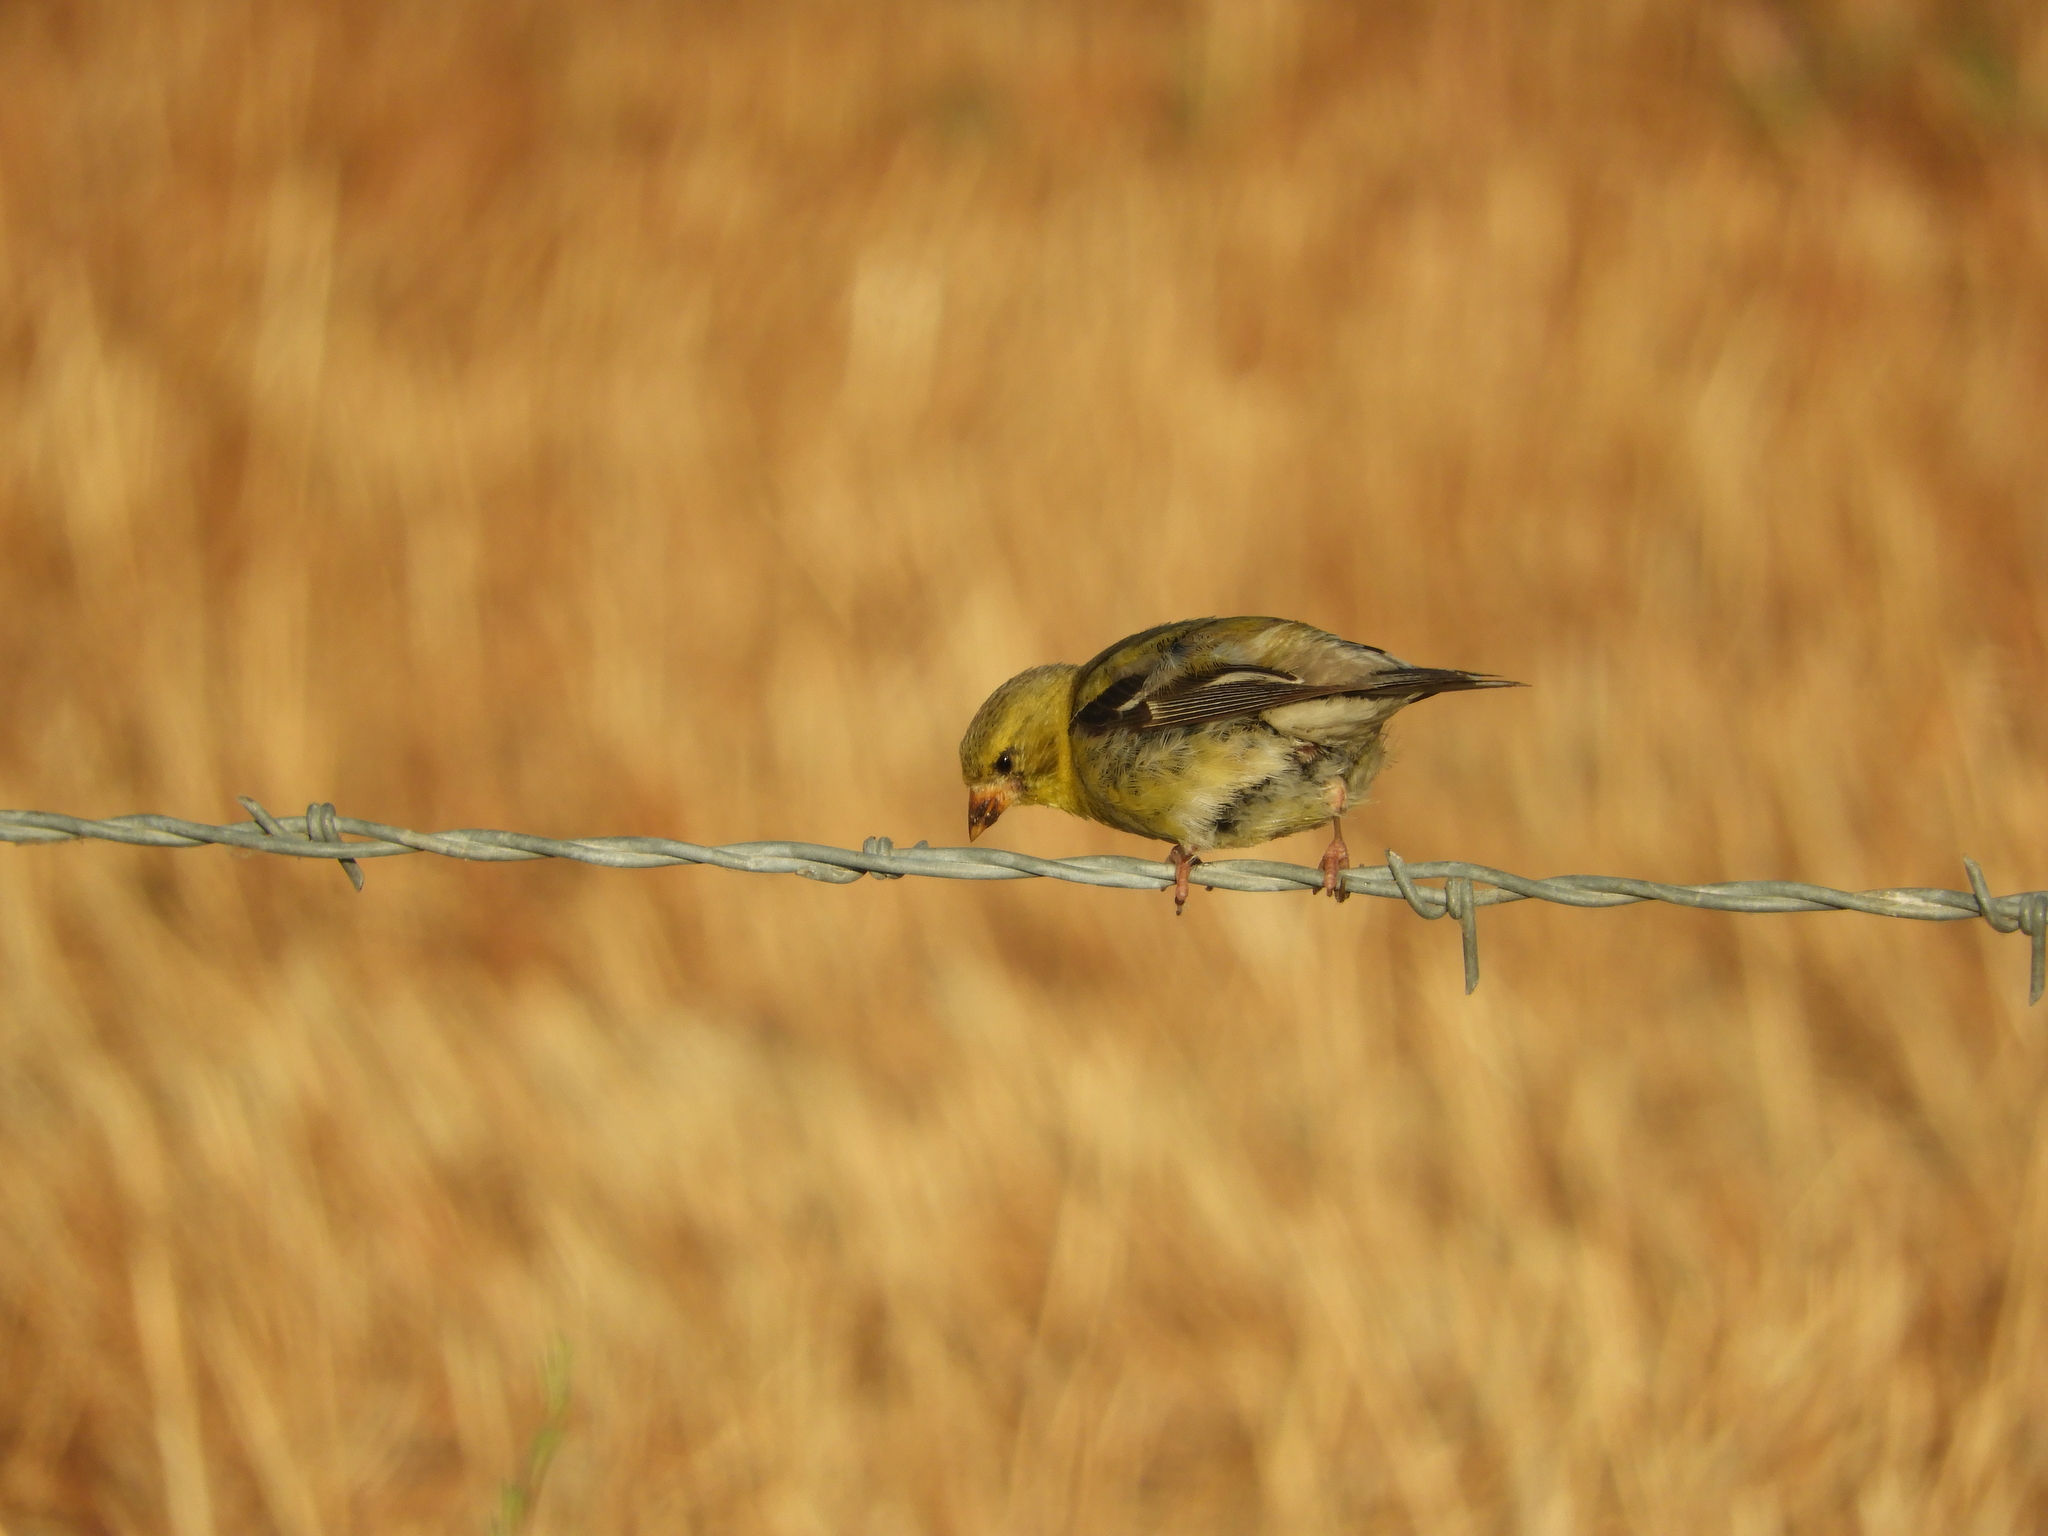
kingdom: Animalia
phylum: Chordata
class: Aves
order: Passeriformes
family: Fringillidae
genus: Spinus
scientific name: Spinus psaltria
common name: Lesser goldfinch
